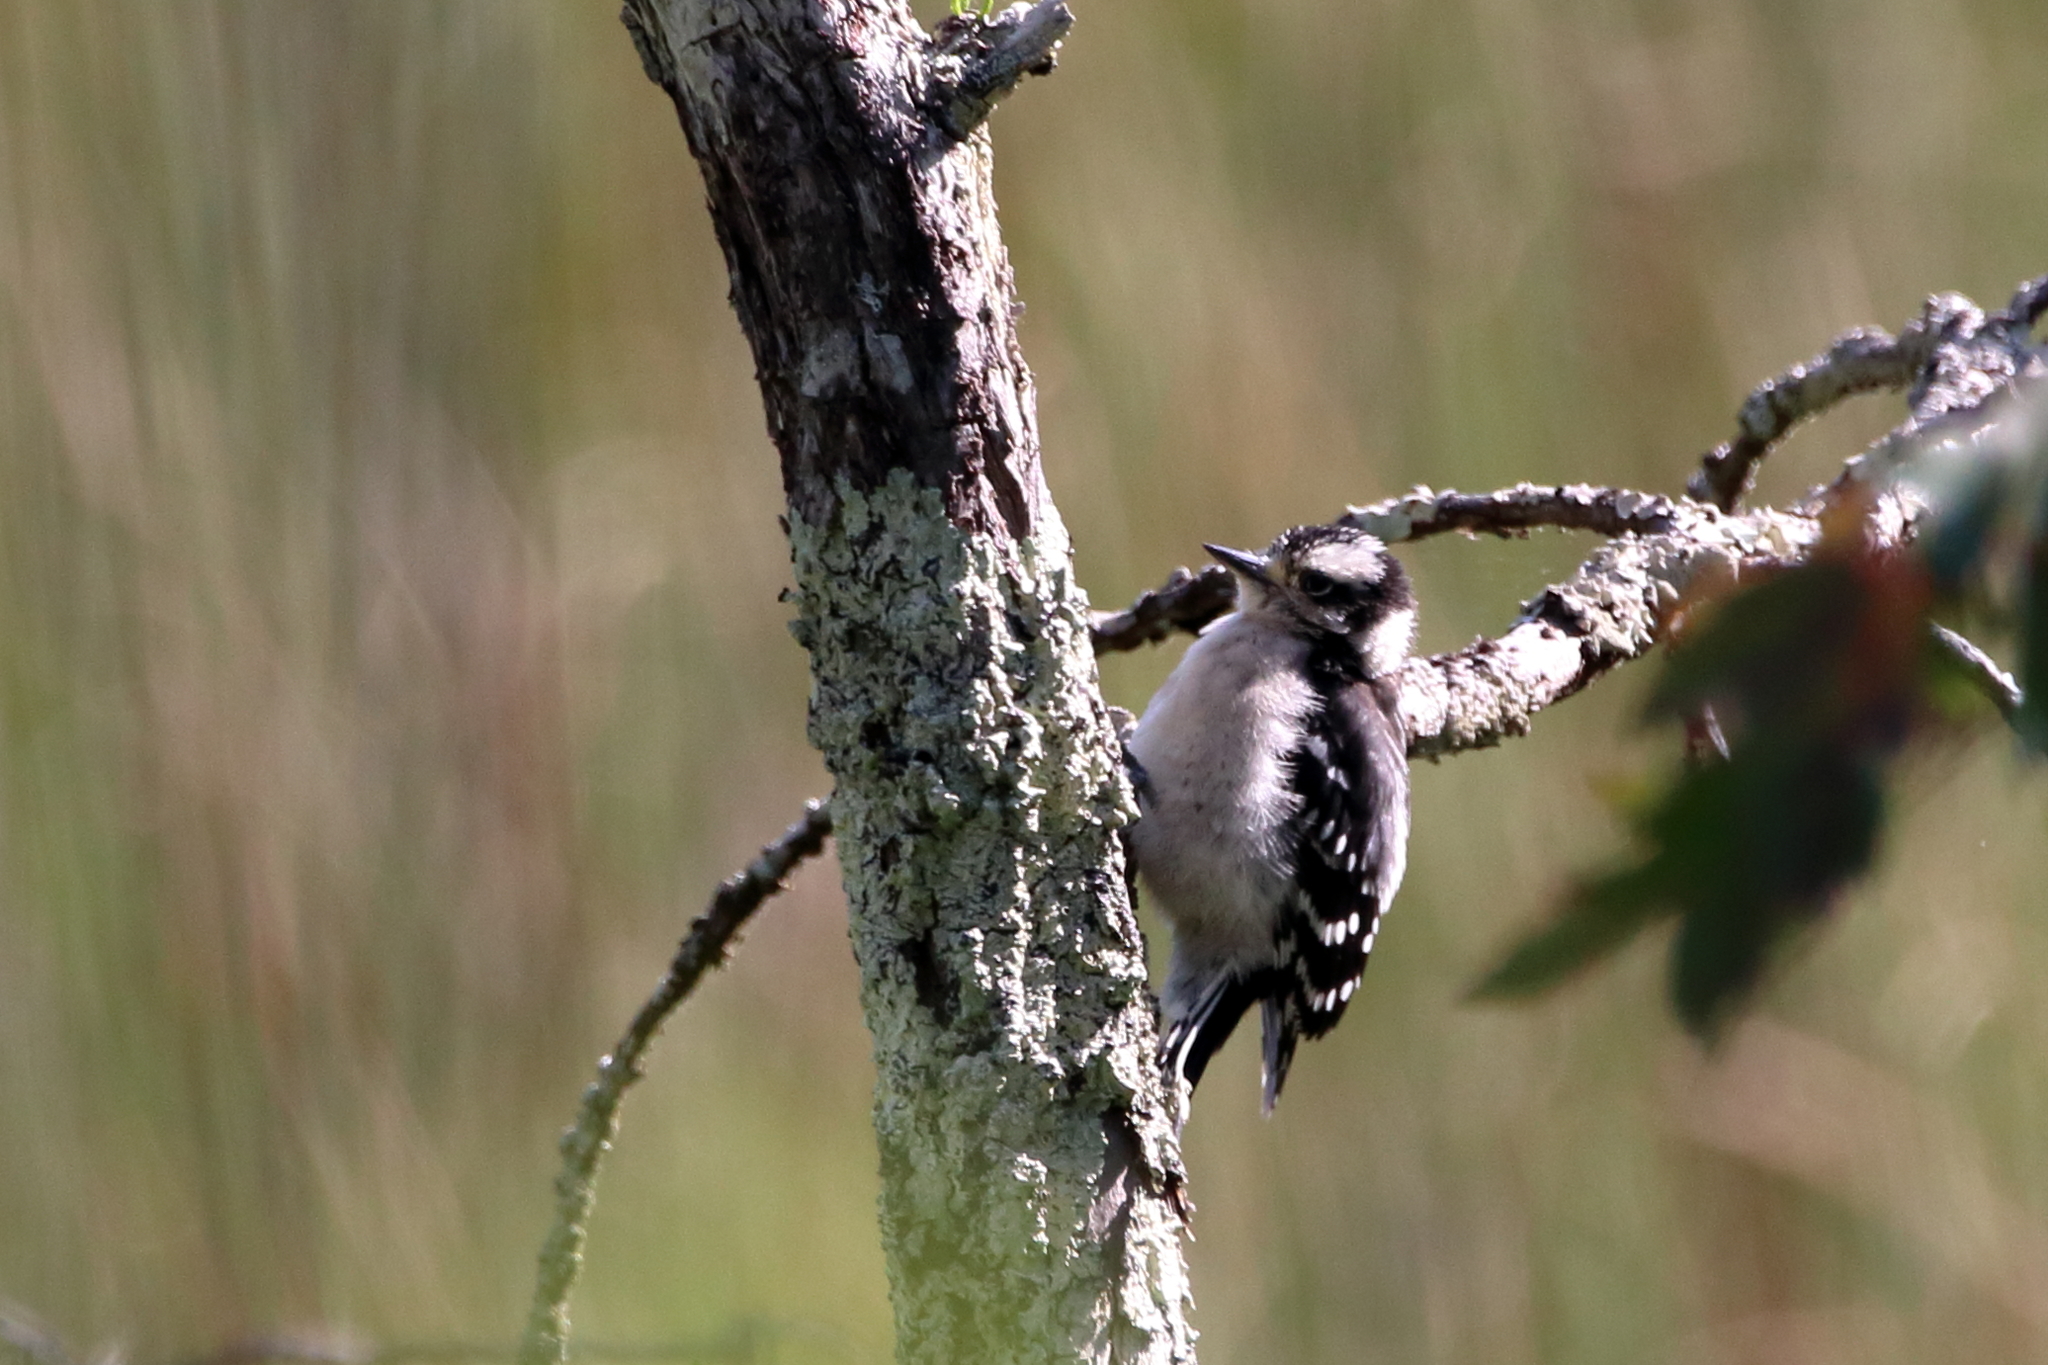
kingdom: Animalia
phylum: Chordata
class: Aves
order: Piciformes
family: Picidae
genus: Dryobates
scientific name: Dryobates pubescens
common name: Downy woodpecker
